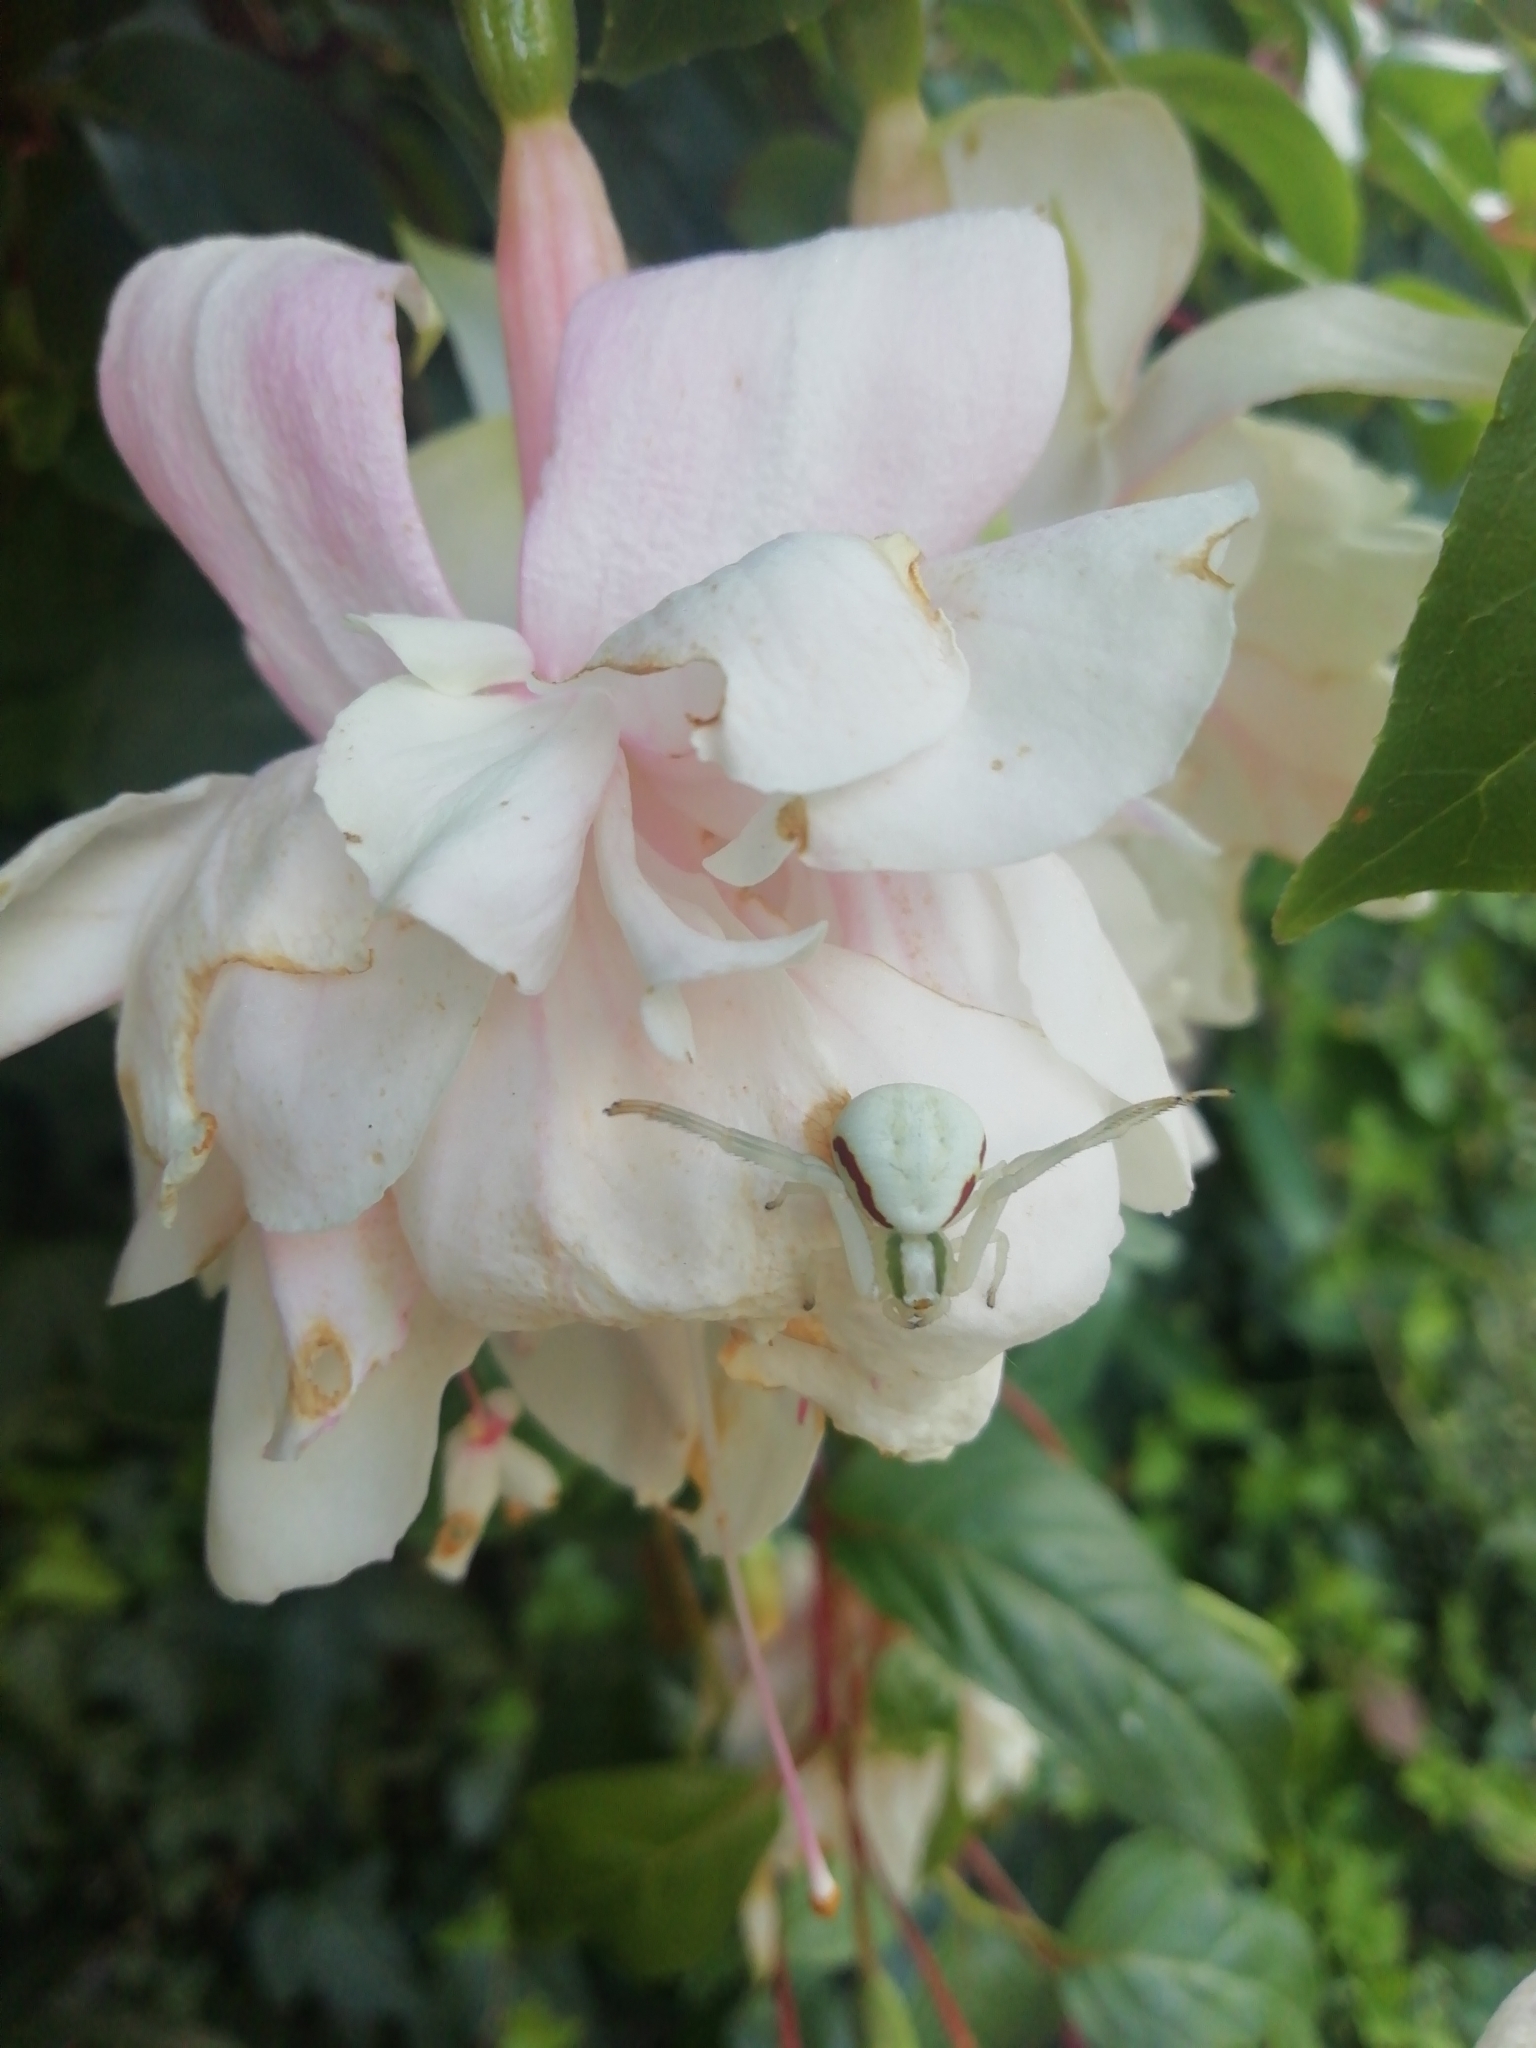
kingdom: Animalia
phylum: Arthropoda
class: Arachnida
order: Araneae
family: Thomisidae
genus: Misumena
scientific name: Misumena vatia
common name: Goldenrod crab spider
